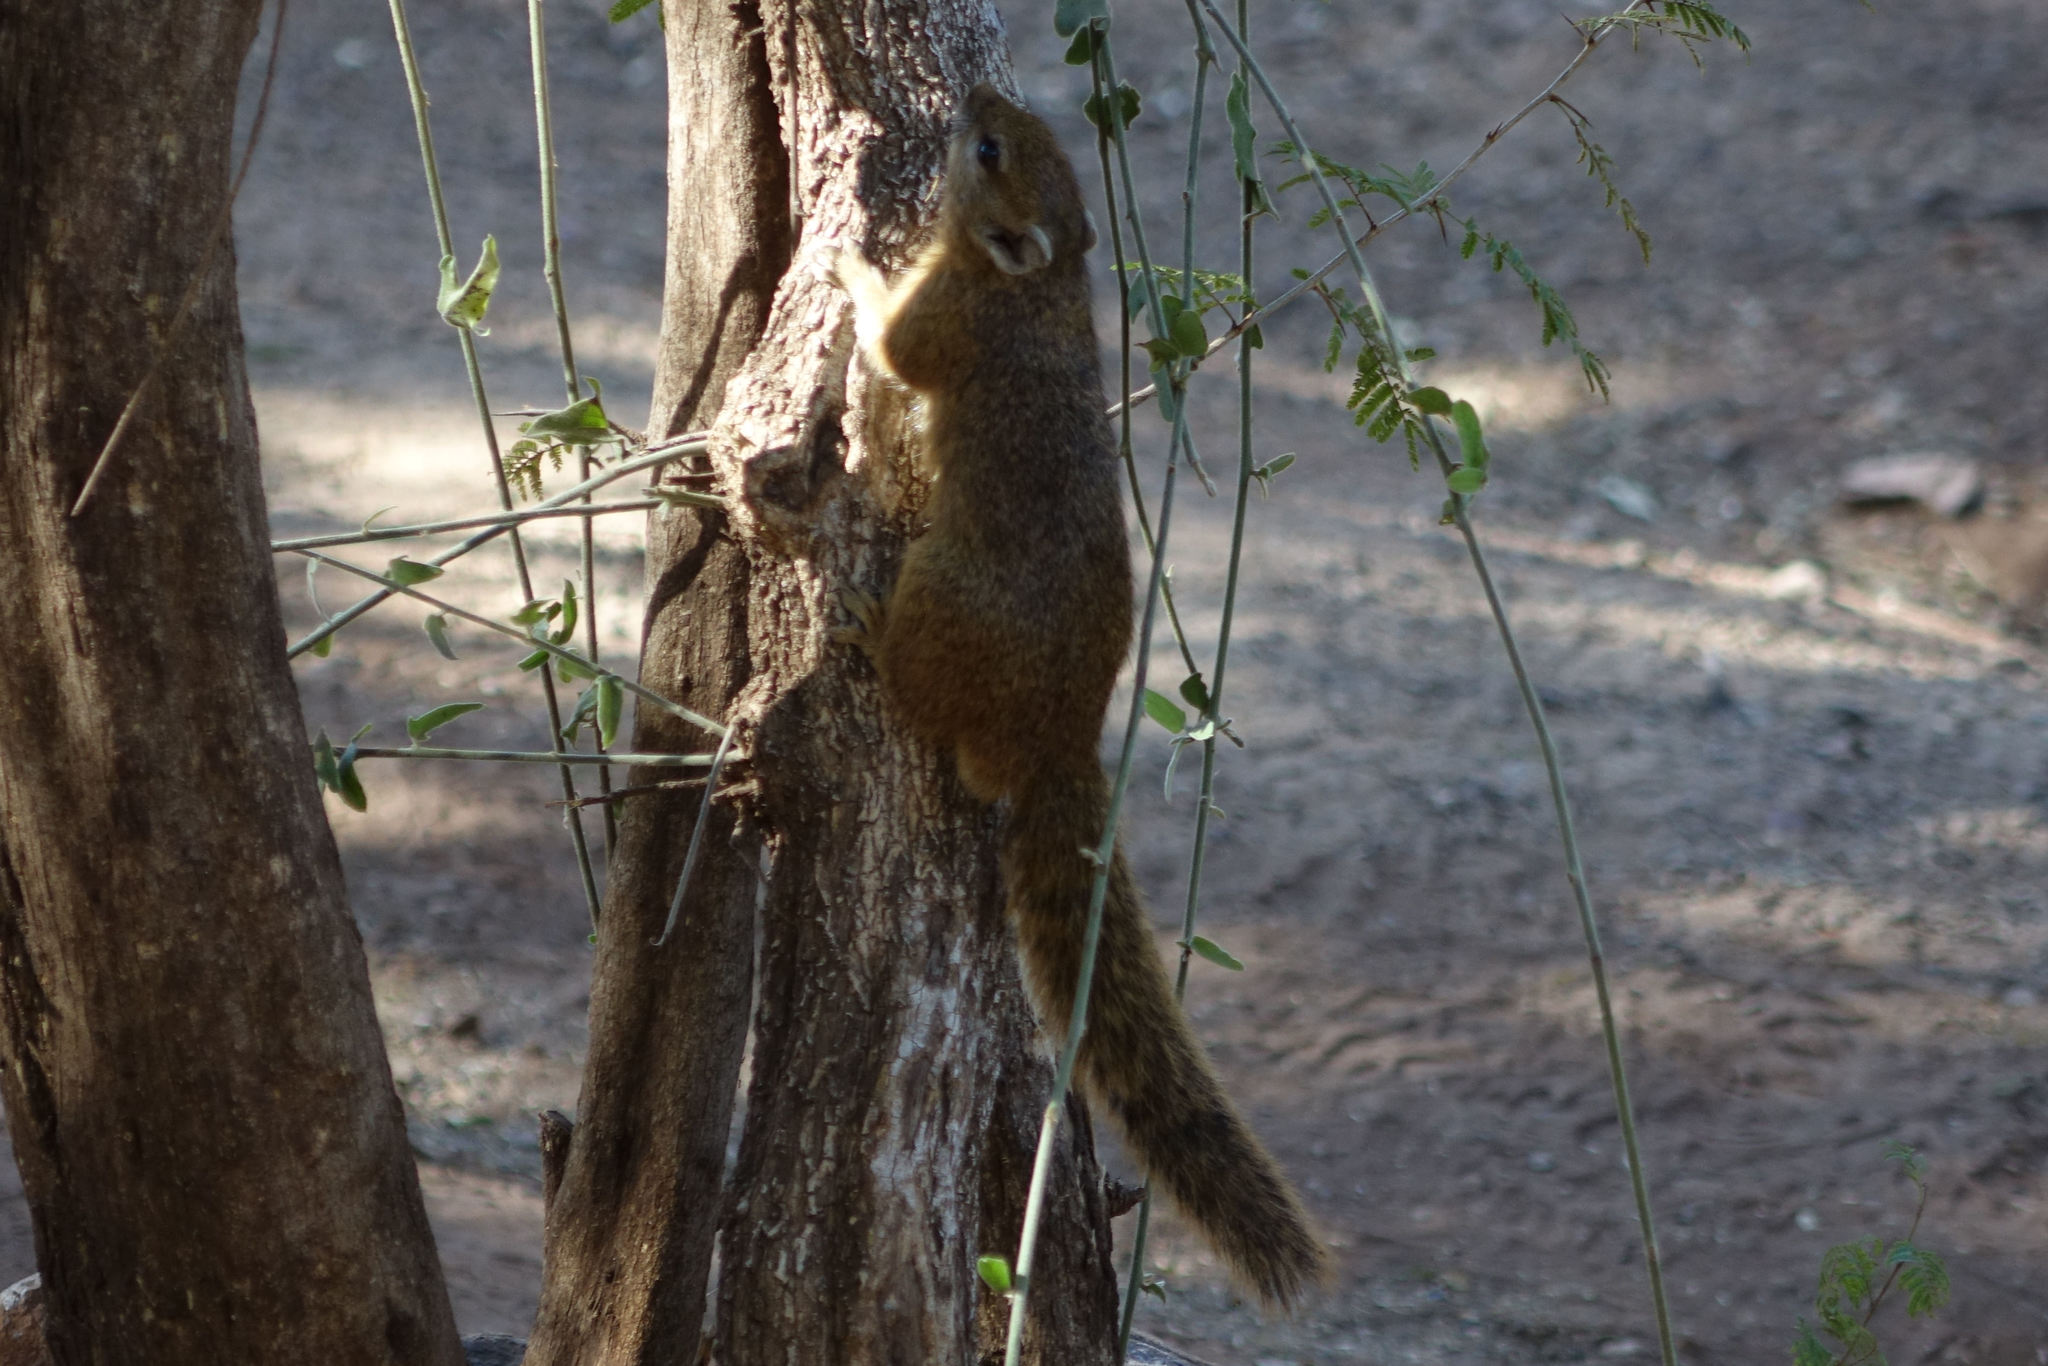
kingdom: Animalia
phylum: Chordata
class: Mammalia
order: Rodentia
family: Sciuridae
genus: Paraxerus
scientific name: Paraxerus cepapi
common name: Smith's bush squirrel
